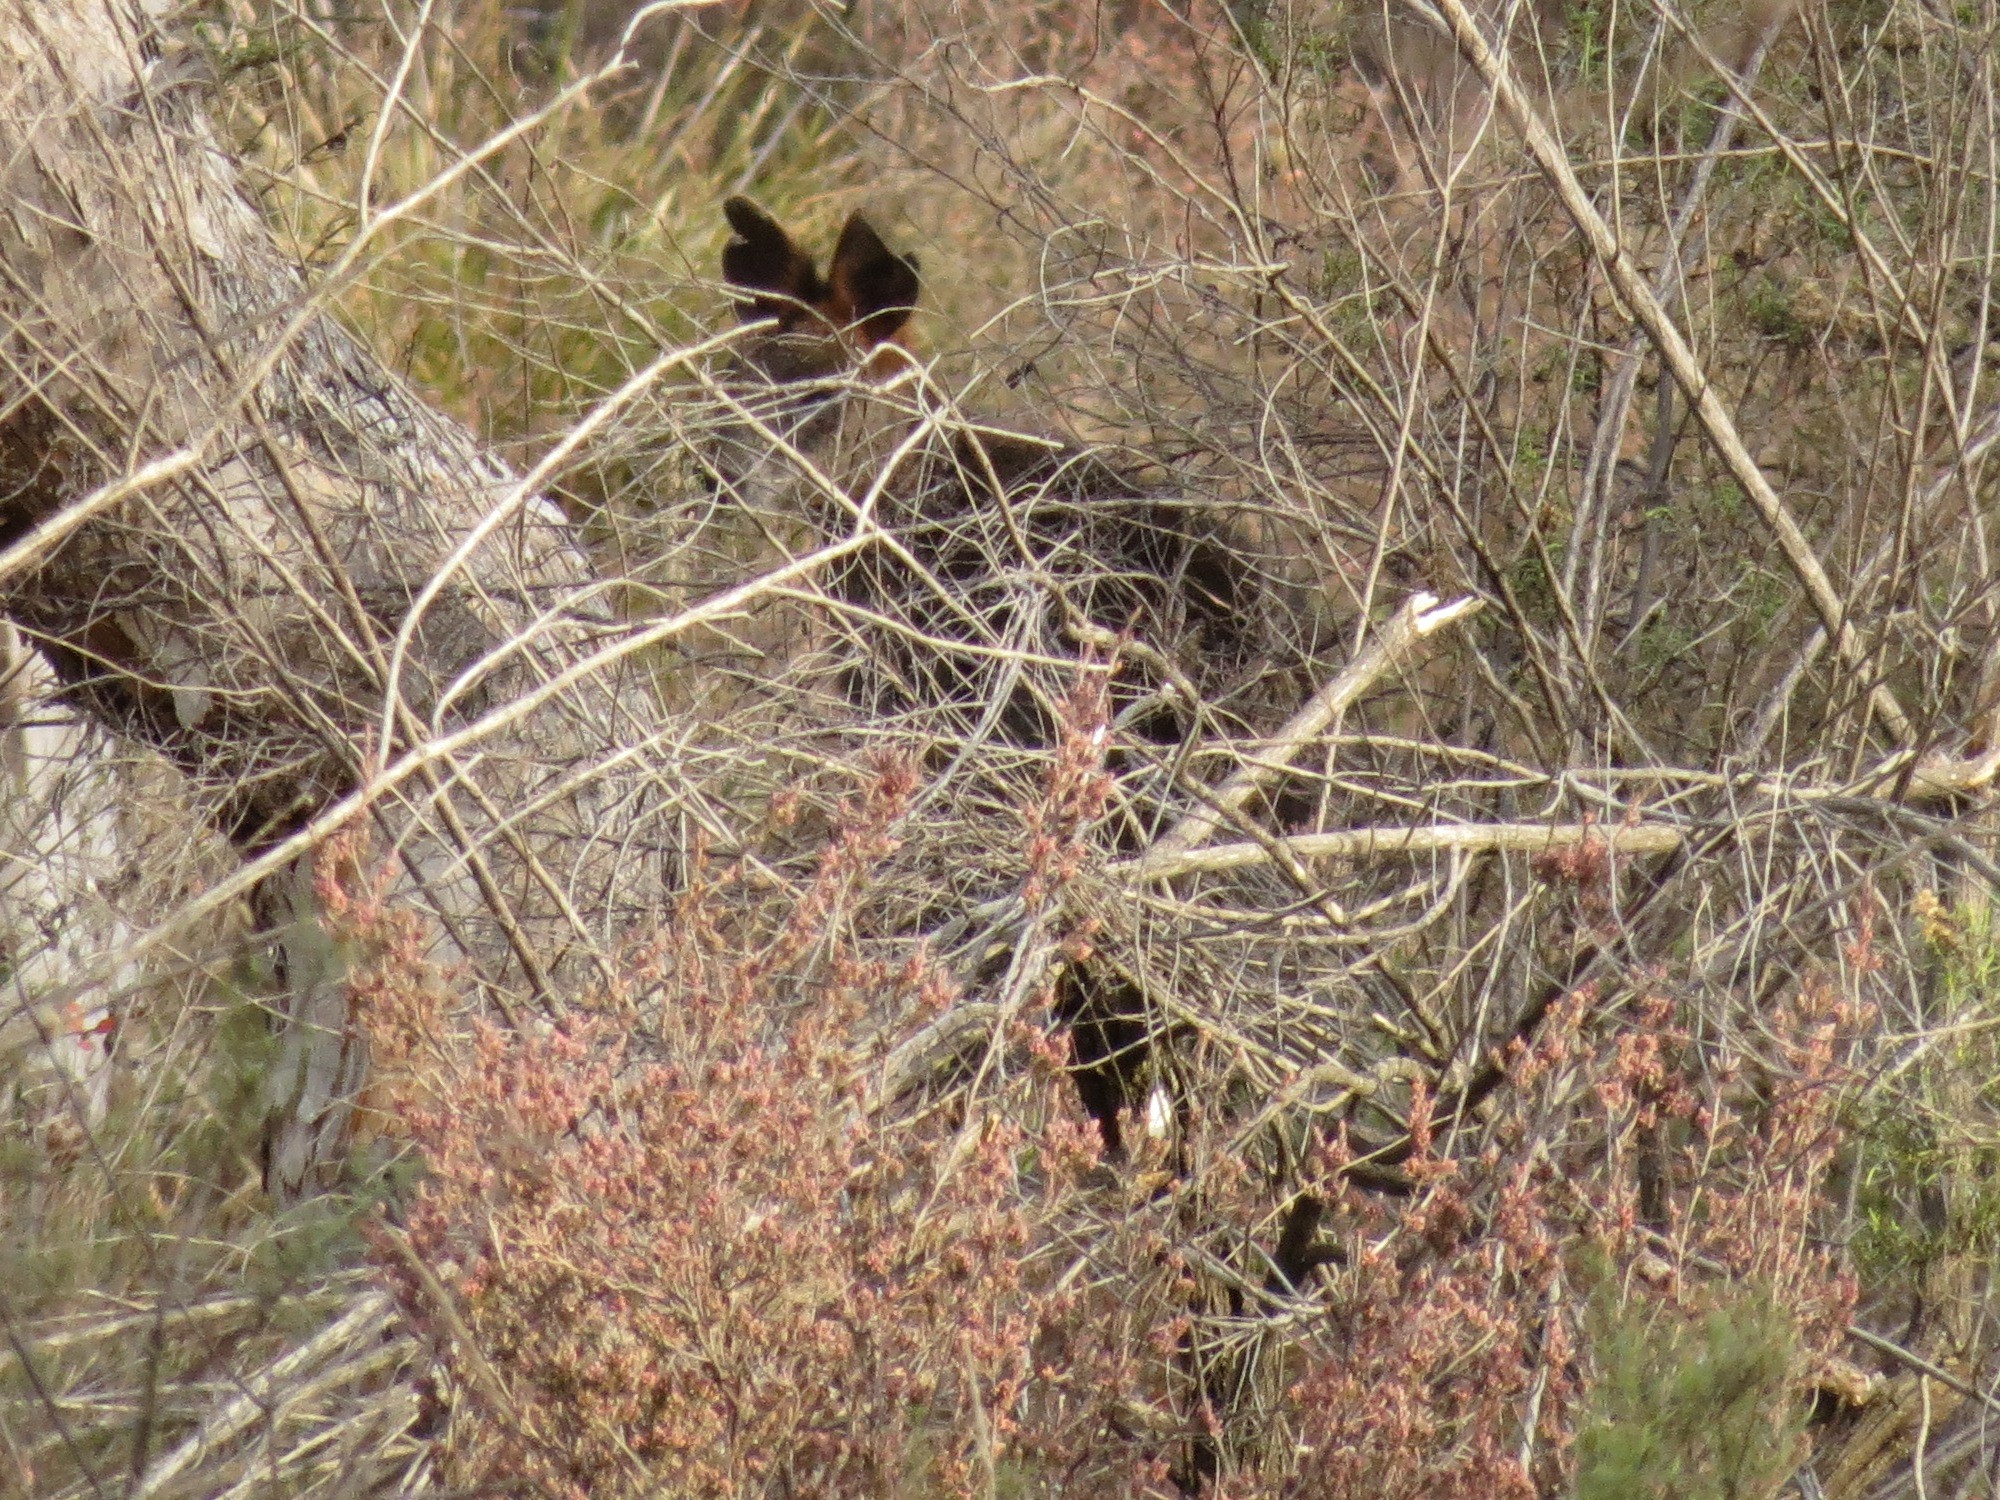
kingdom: Animalia
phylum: Chordata
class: Mammalia
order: Diprotodontia
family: Macropodidae
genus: Wallabia
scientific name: Wallabia bicolor
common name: Swamp wallaby
